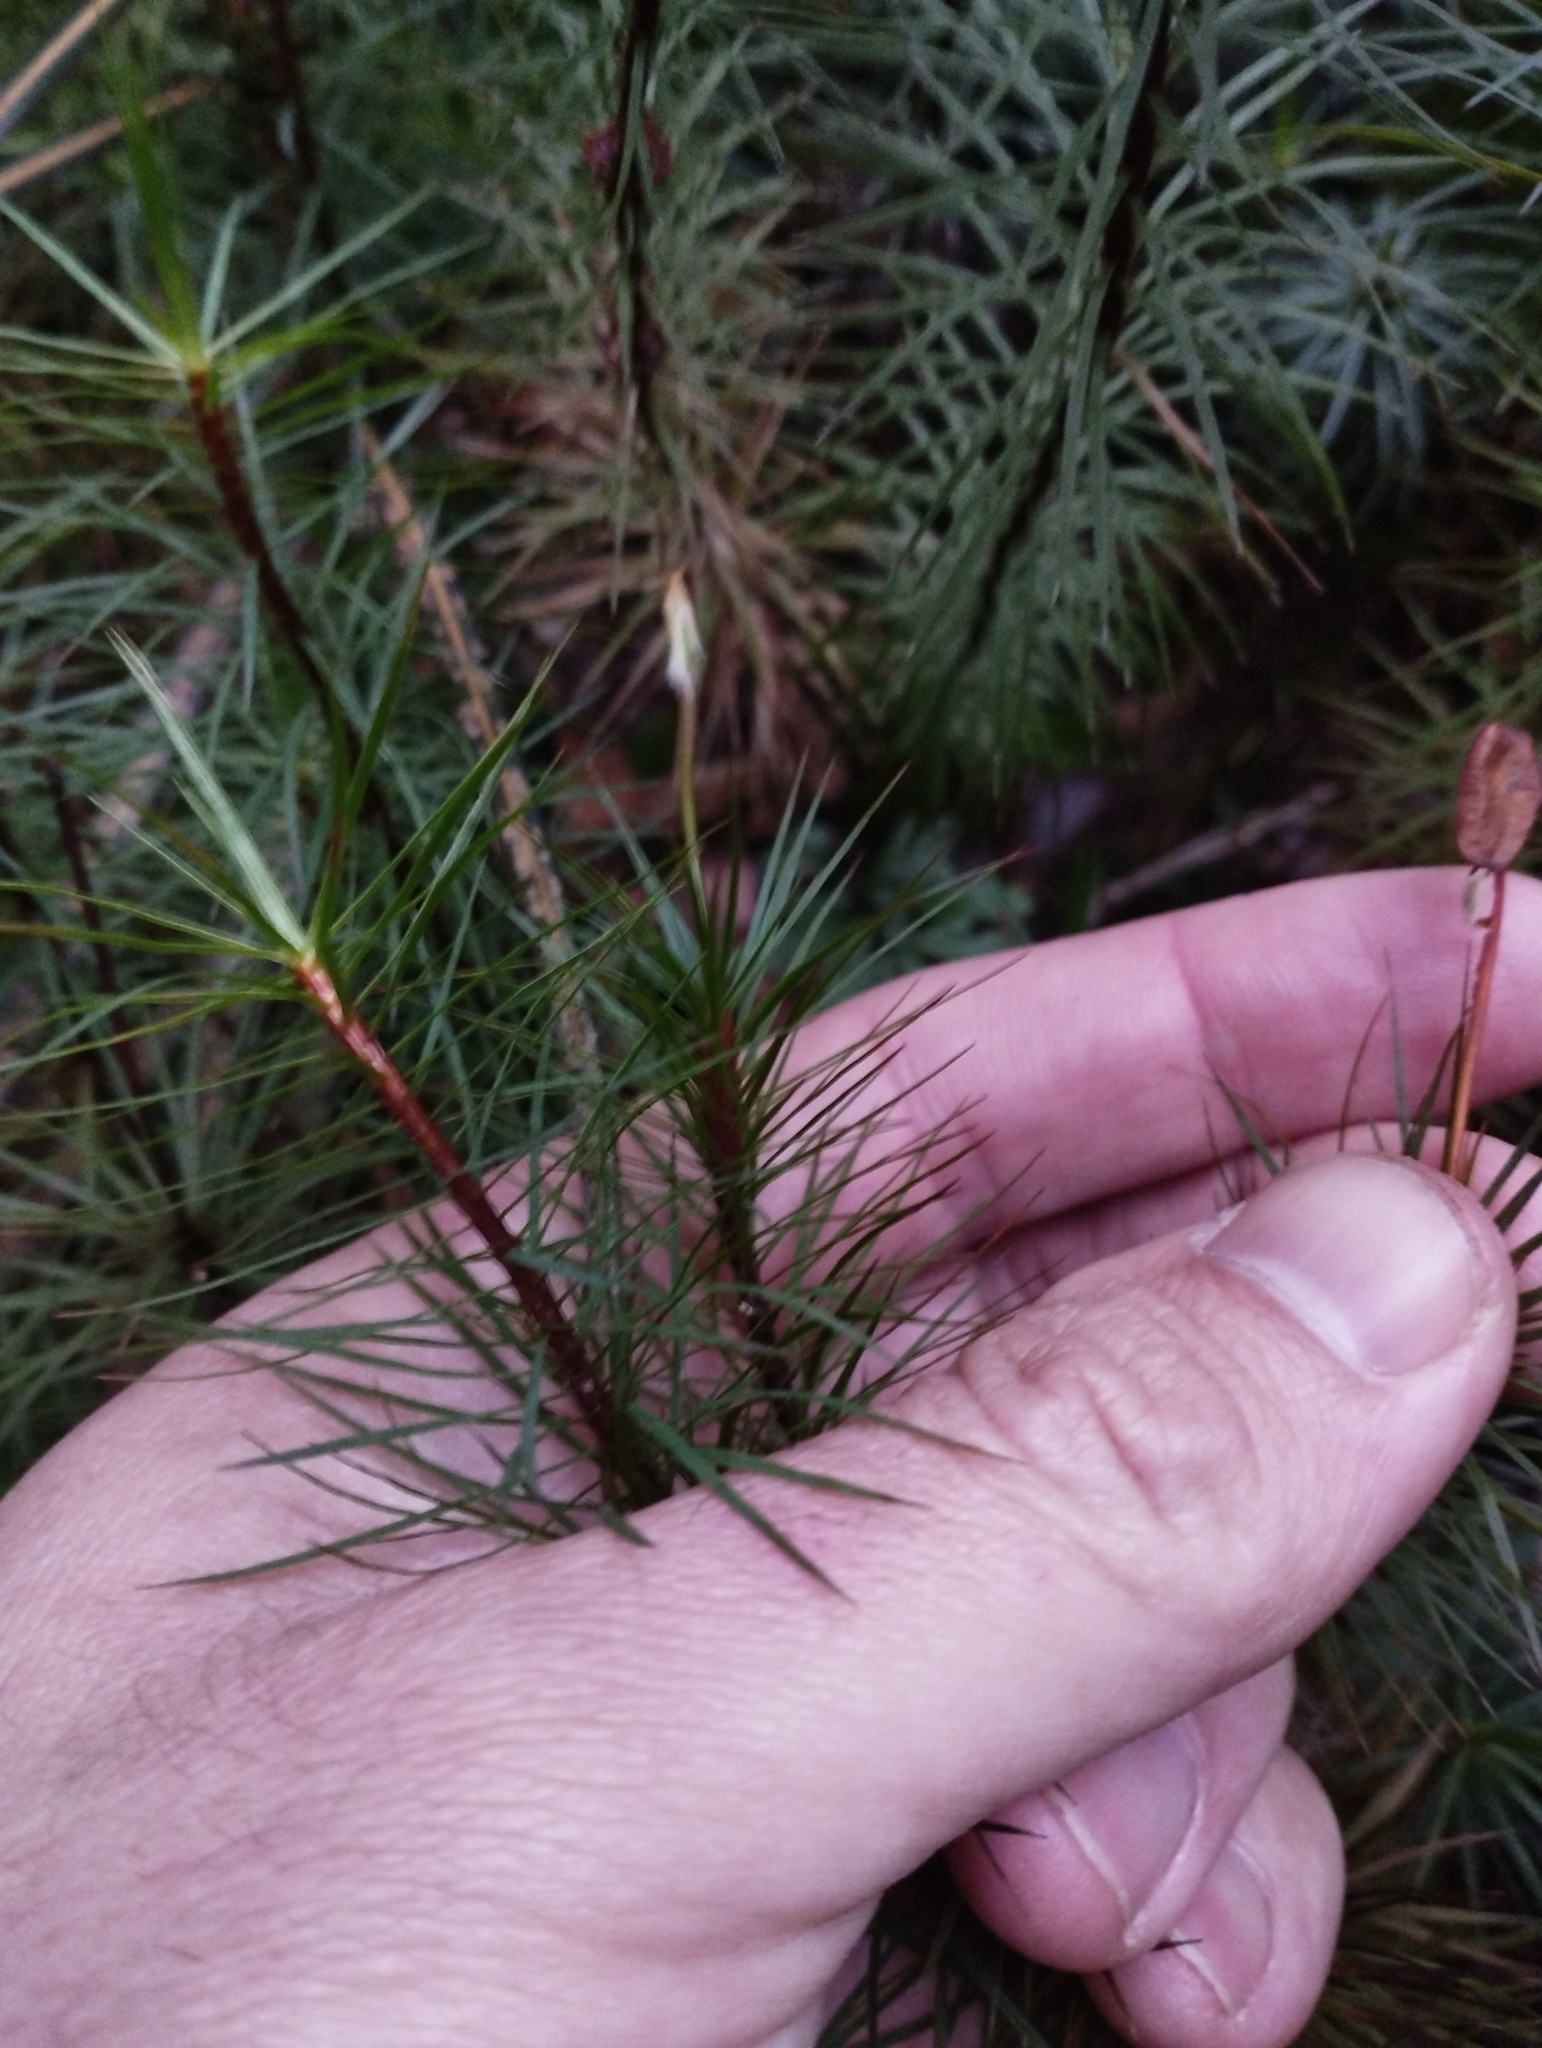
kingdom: Plantae
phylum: Bryophyta
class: Polytrichopsida
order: Polytrichales
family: Polytrichaceae
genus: Dawsonia
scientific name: Dawsonia superba
